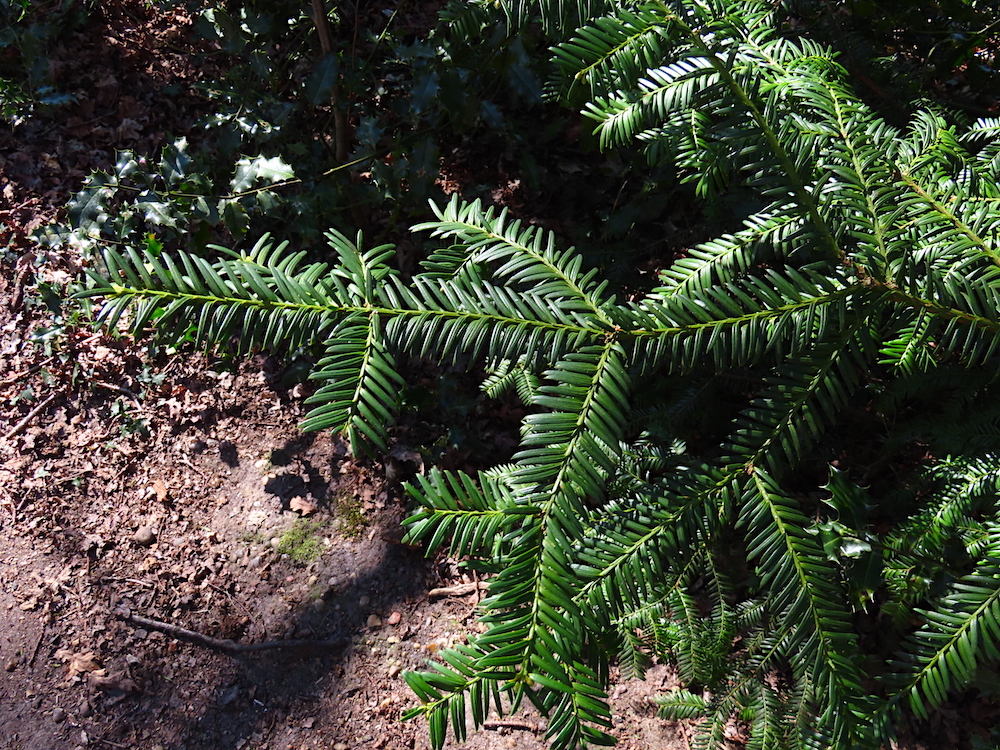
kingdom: Plantae
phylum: Tracheophyta
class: Pinopsida
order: Pinales
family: Taxaceae
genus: Taxus
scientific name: Taxus baccata
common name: Yew
